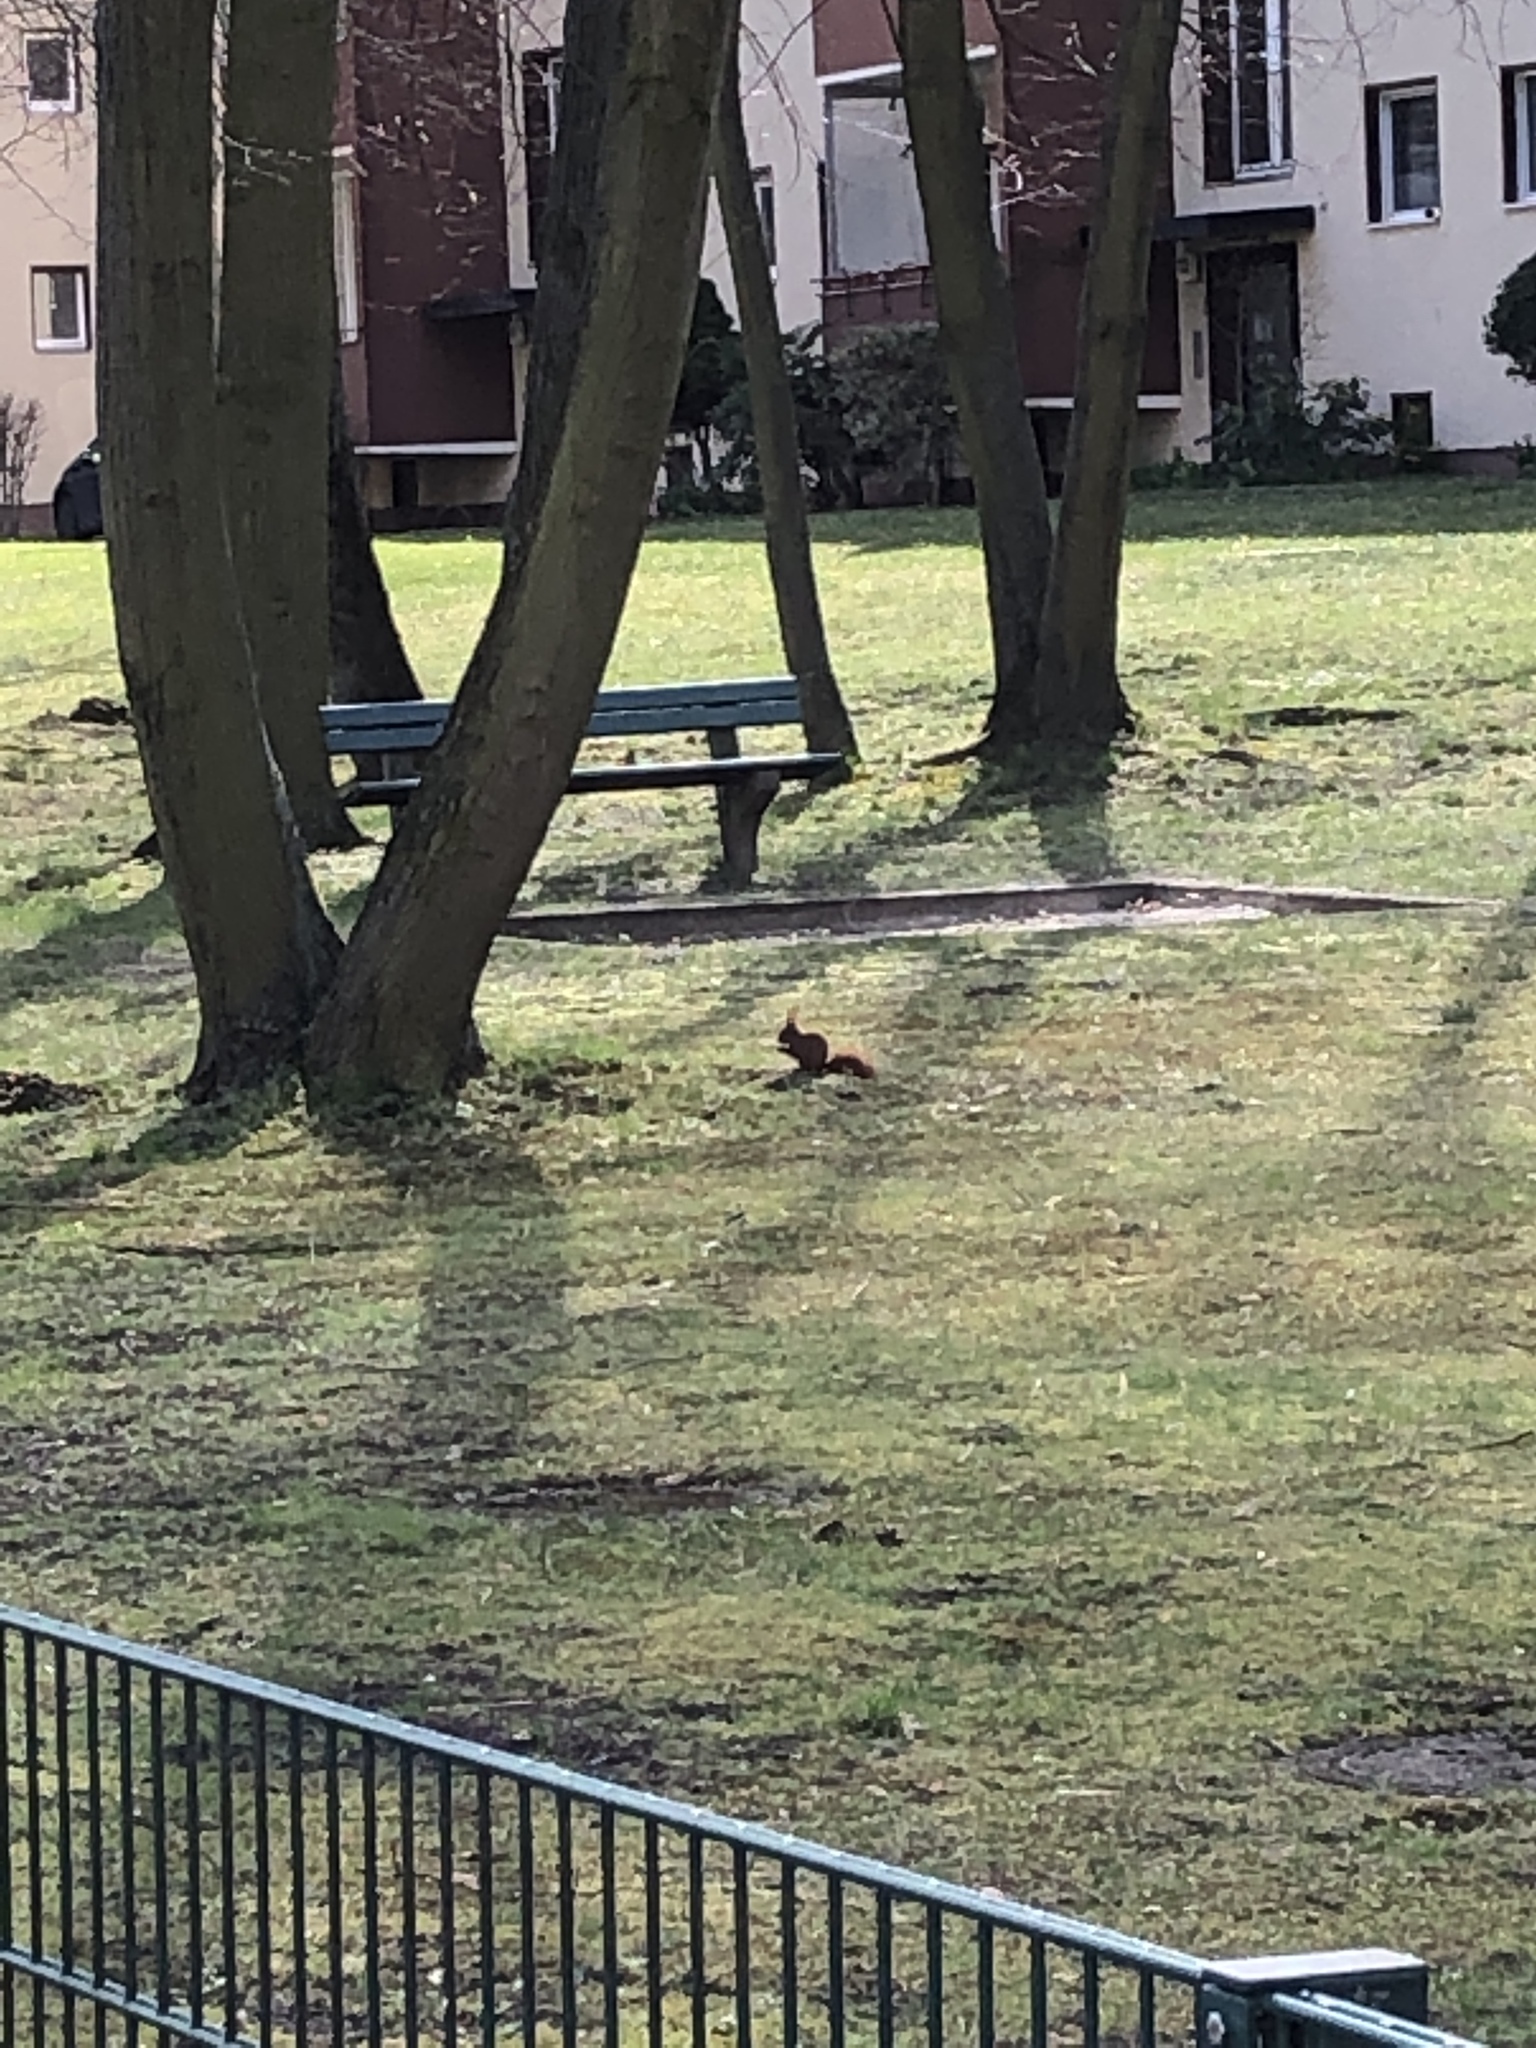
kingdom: Animalia
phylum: Chordata
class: Mammalia
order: Rodentia
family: Sciuridae
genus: Sciurus
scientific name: Sciurus vulgaris
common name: Eurasian red squirrel
